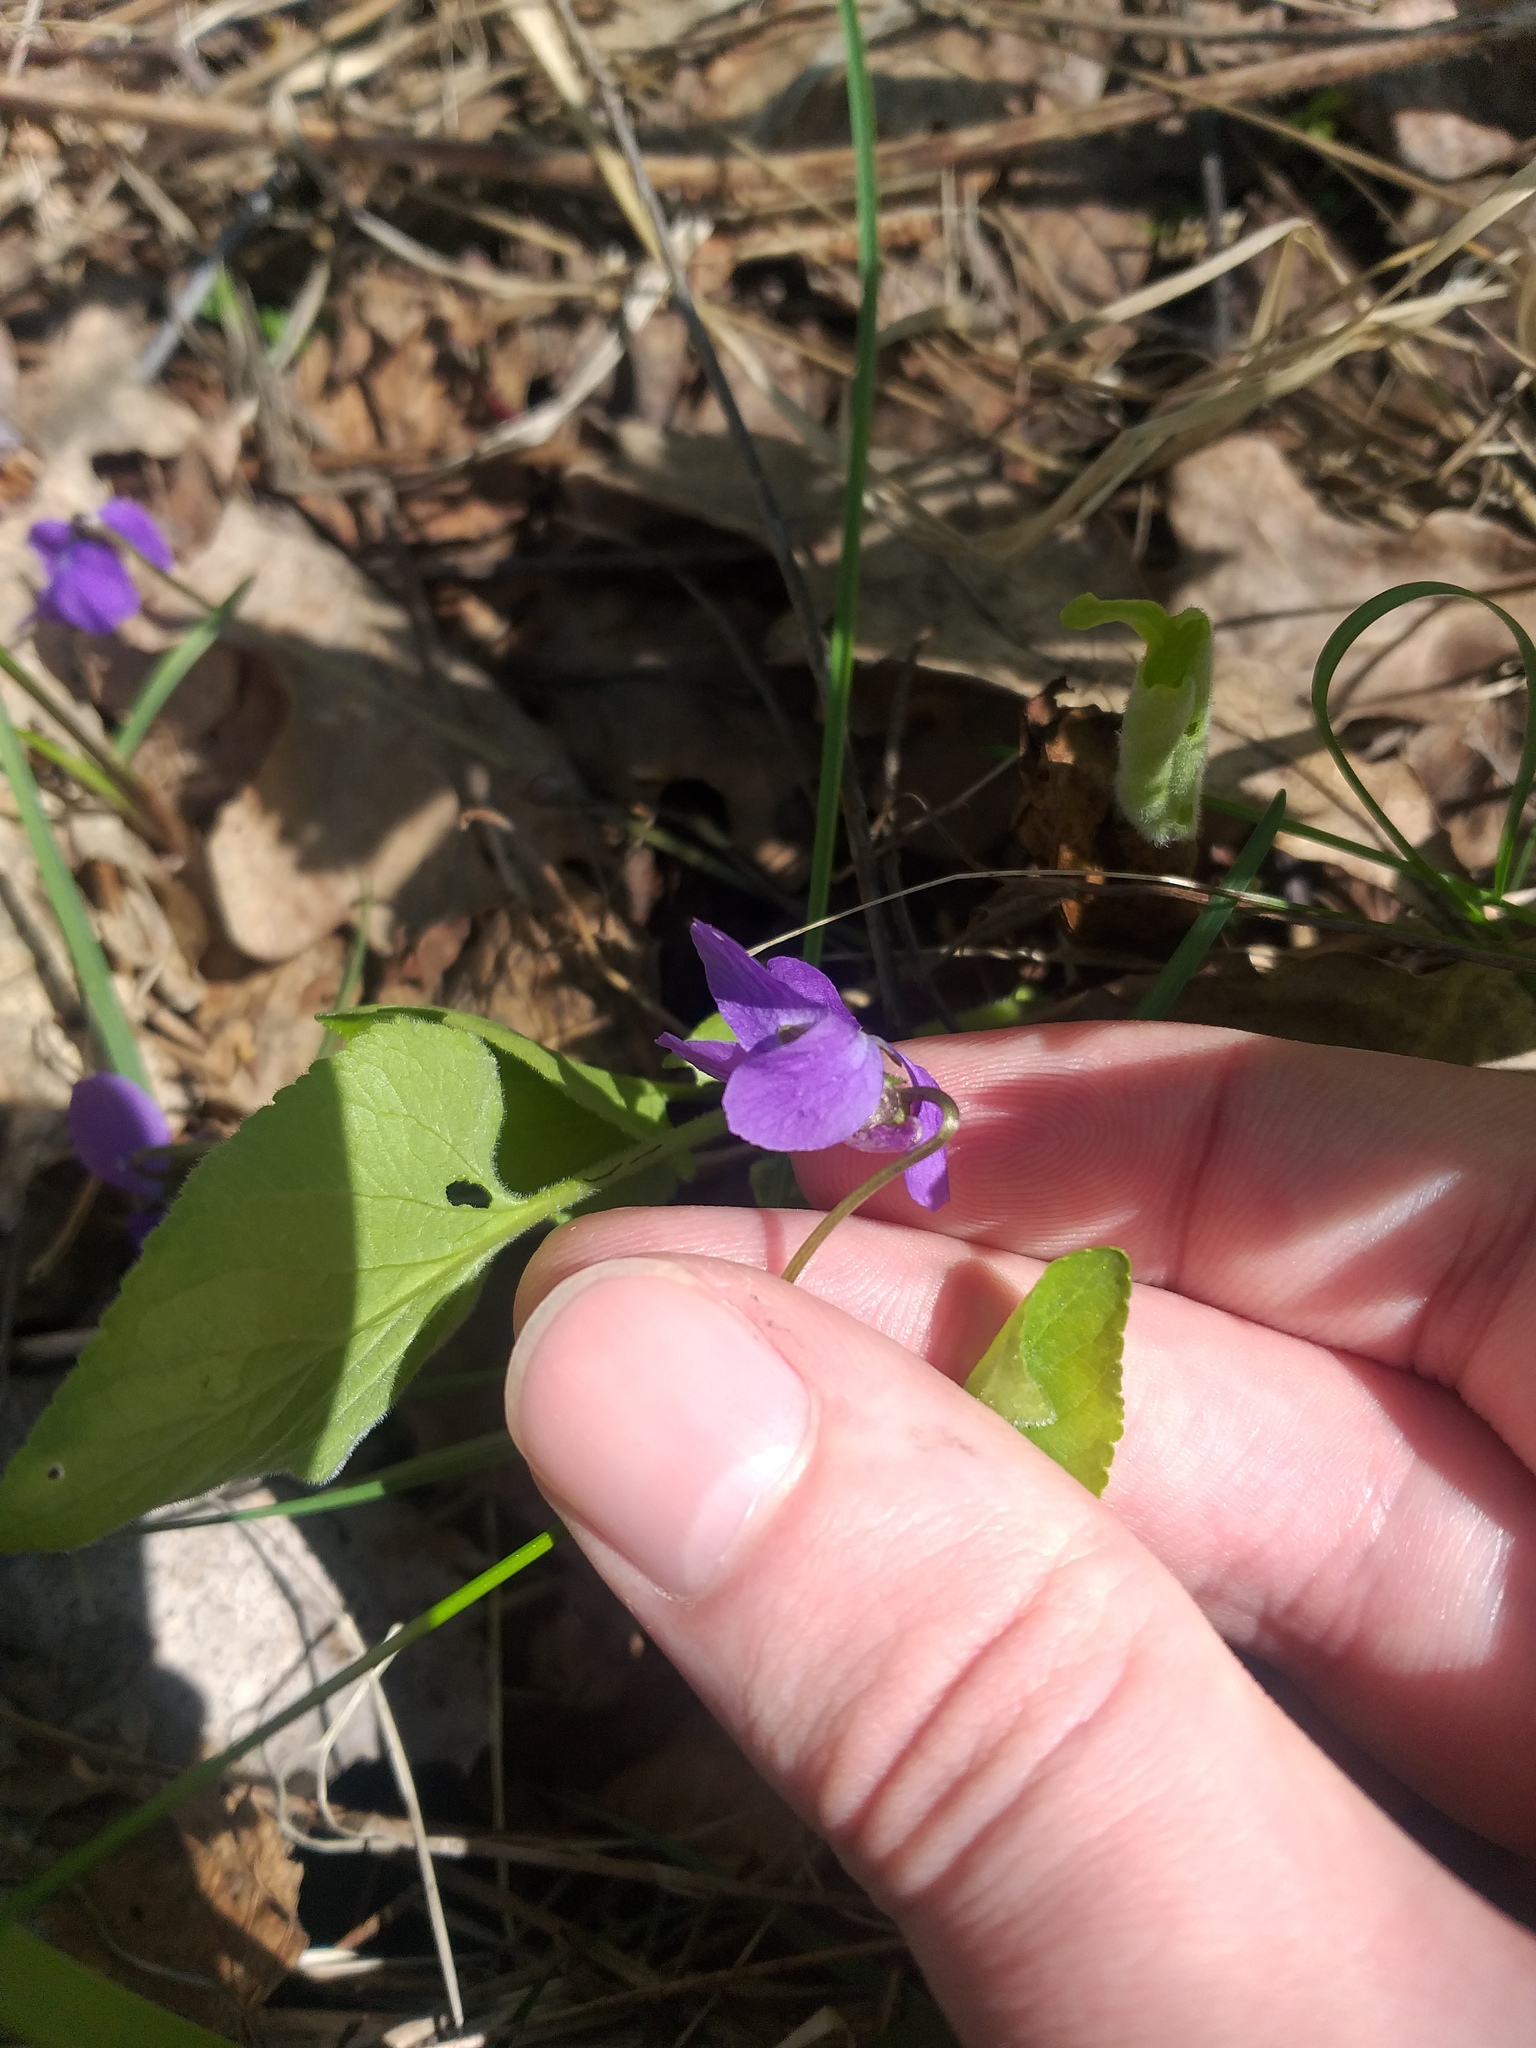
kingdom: Plantae
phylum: Tracheophyta
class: Magnoliopsida
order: Malpighiales
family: Violaceae
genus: Viola
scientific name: Viola hirta
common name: Hairy violet
